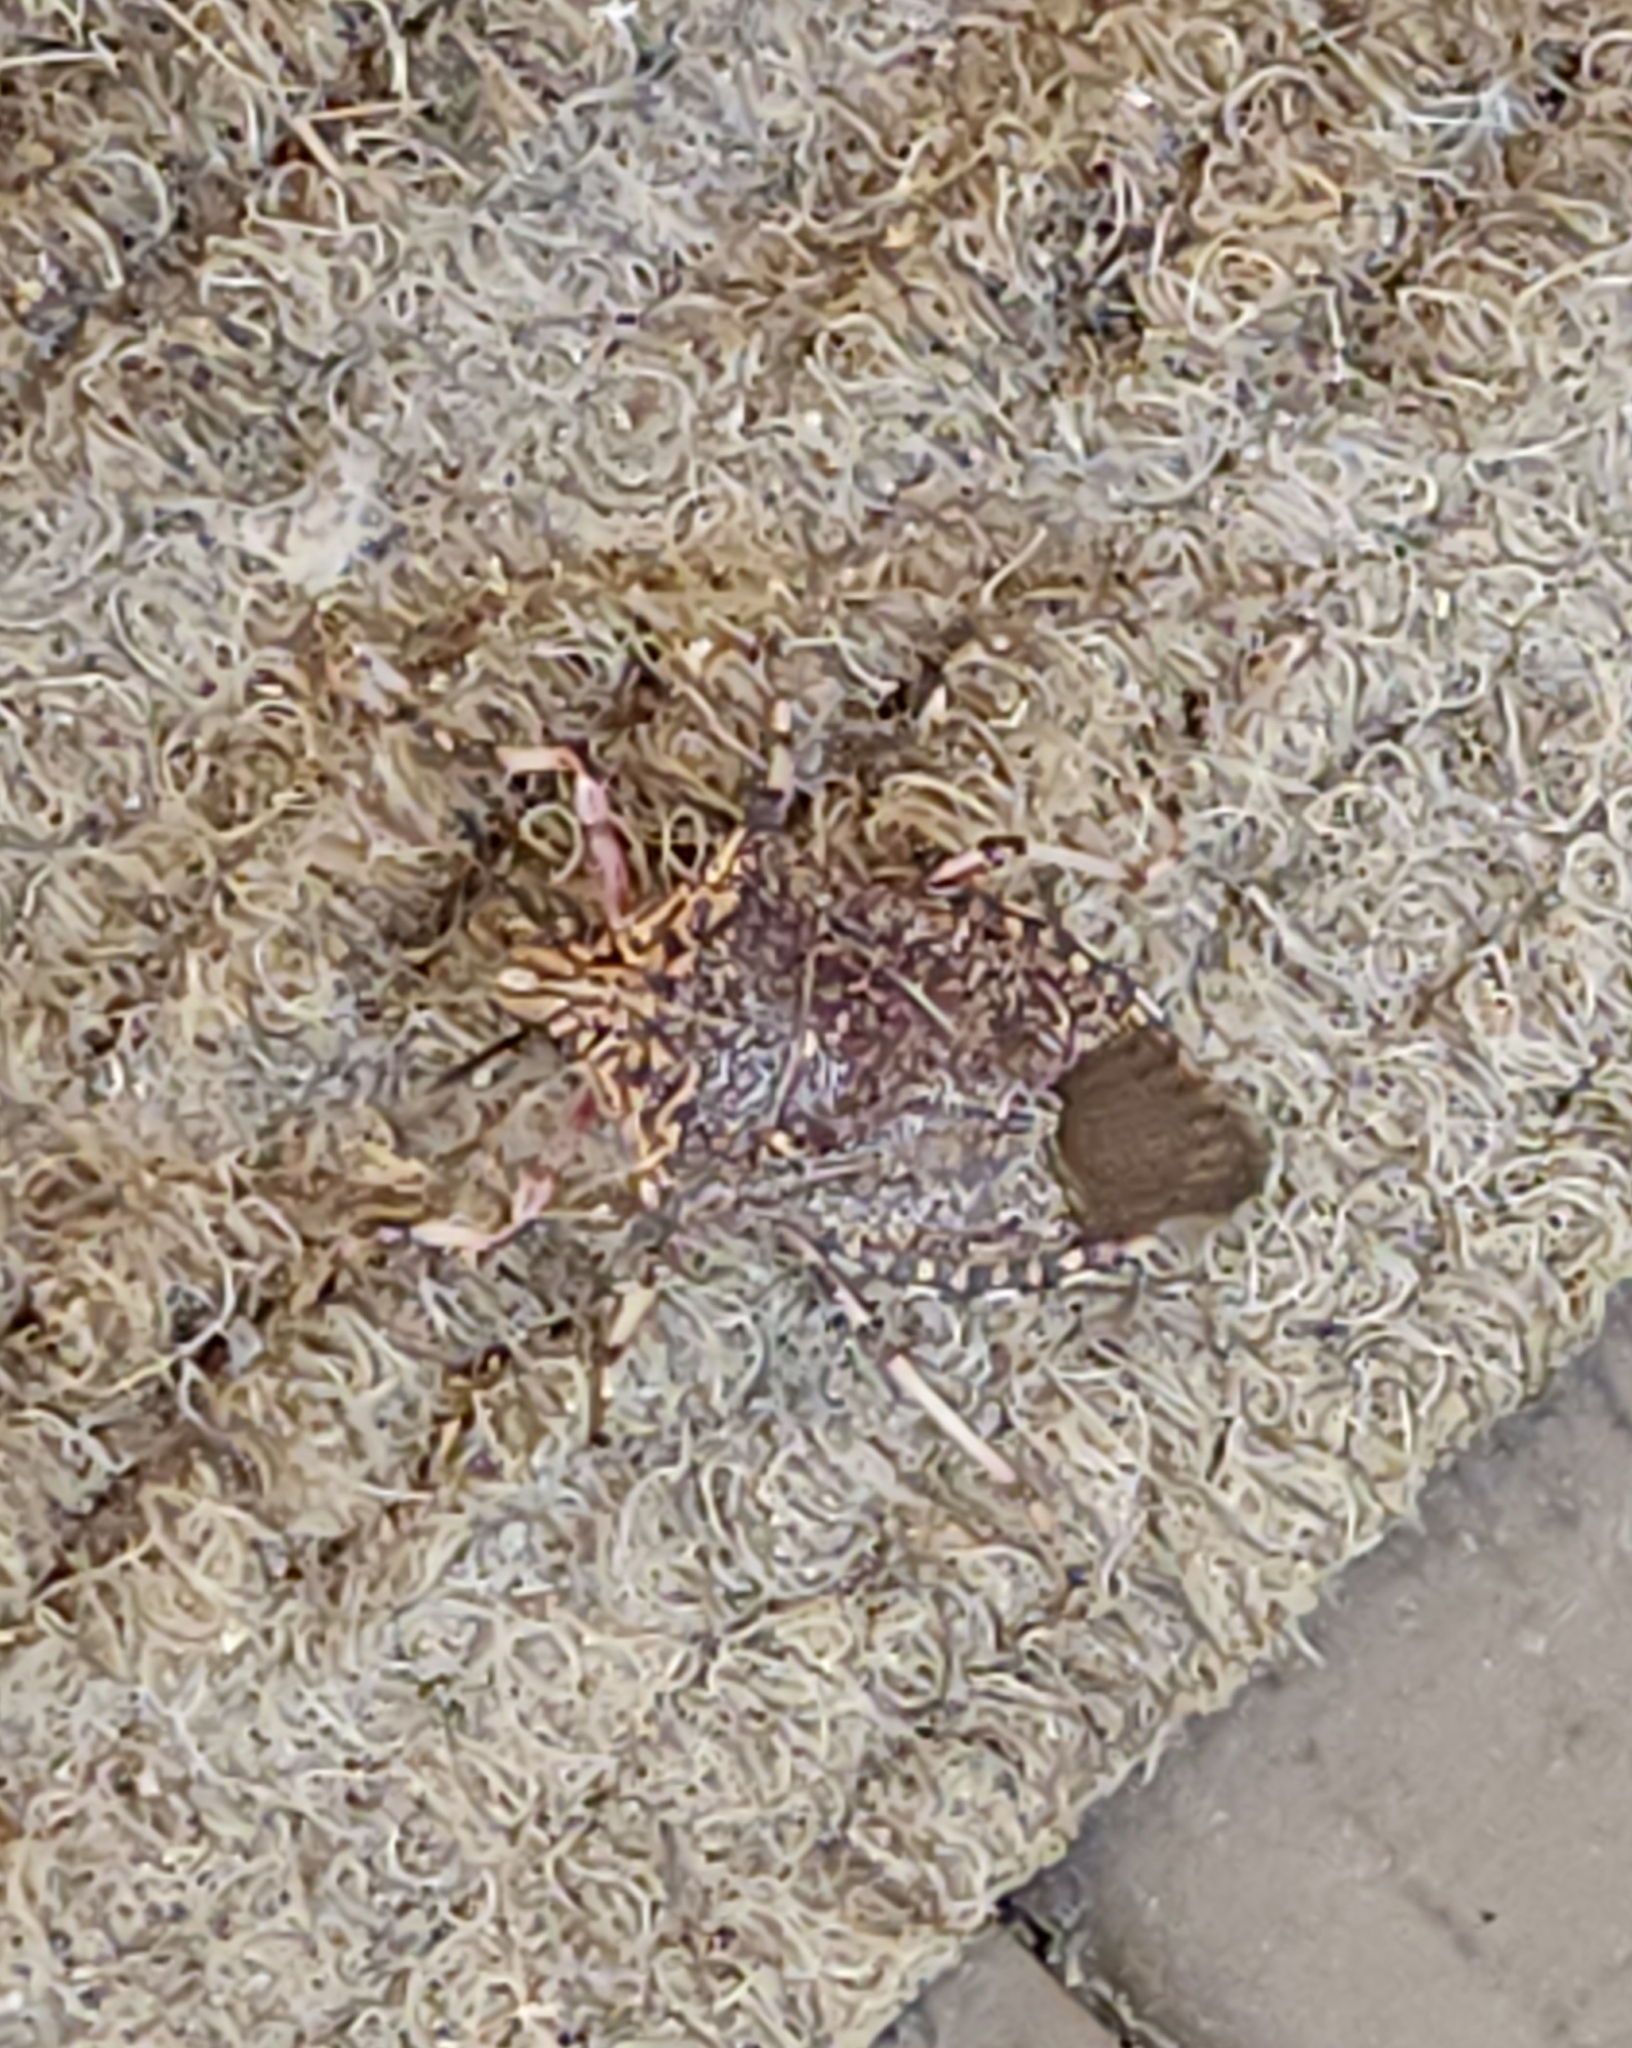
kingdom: Animalia
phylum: Arthropoda
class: Insecta
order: Hemiptera
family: Pentatomidae
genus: Alcaeorrhynchus
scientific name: Alcaeorrhynchus grandis
